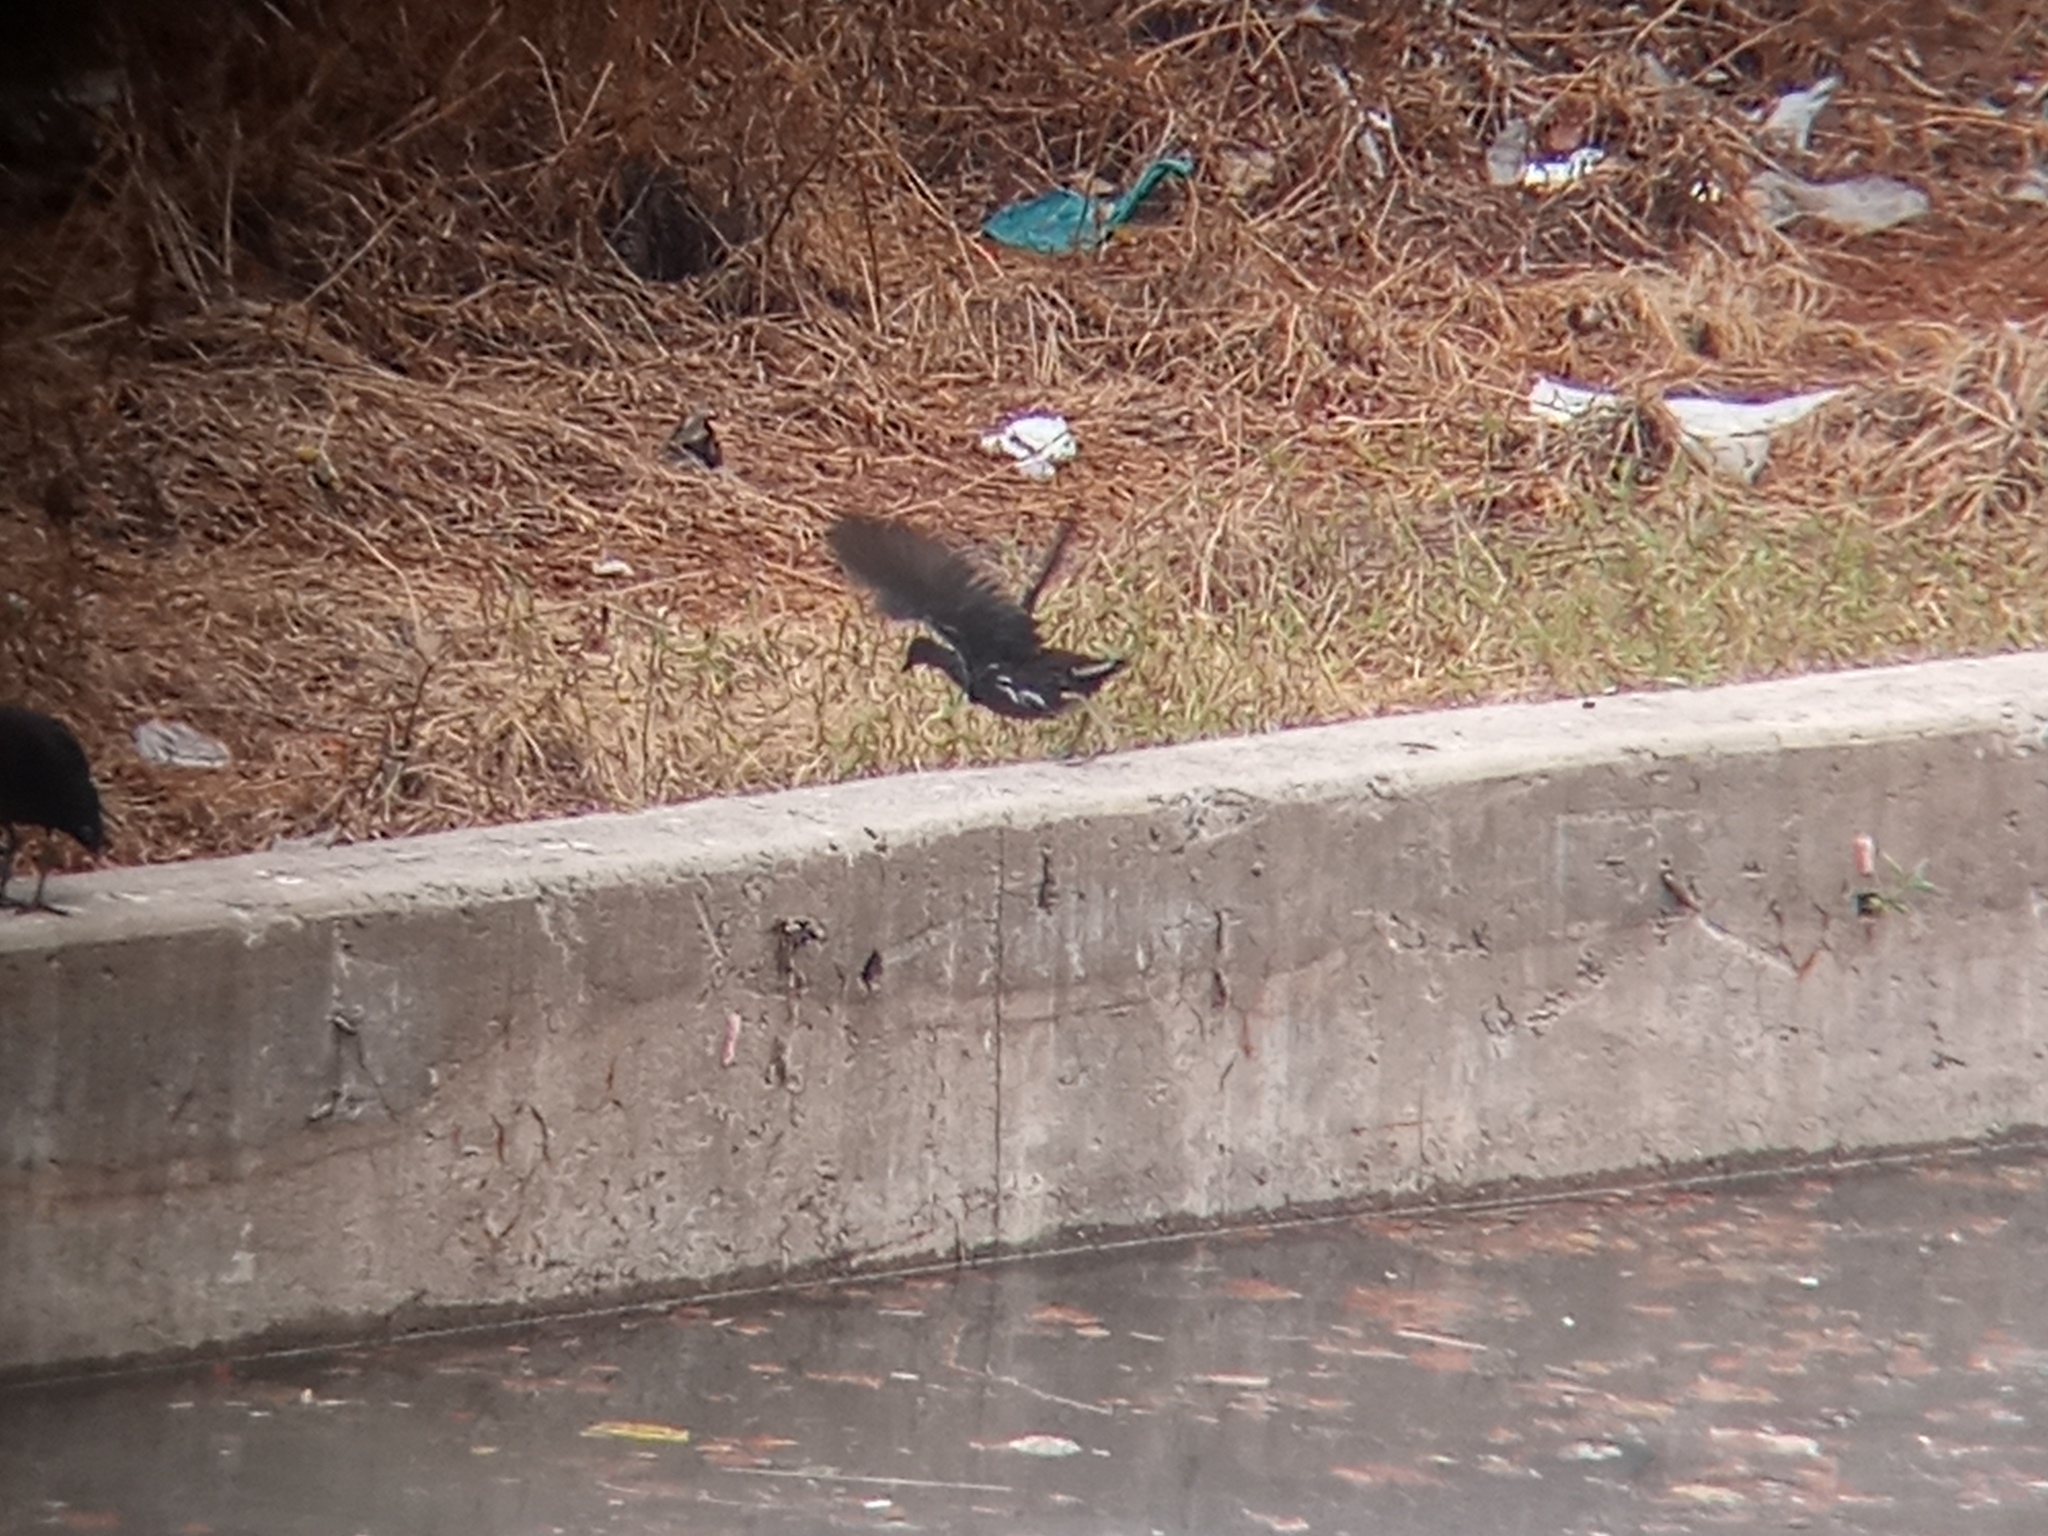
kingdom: Animalia
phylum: Chordata
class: Aves
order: Gruiformes
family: Rallidae
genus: Gallinula
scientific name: Gallinula chloropus
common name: Common moorhen
